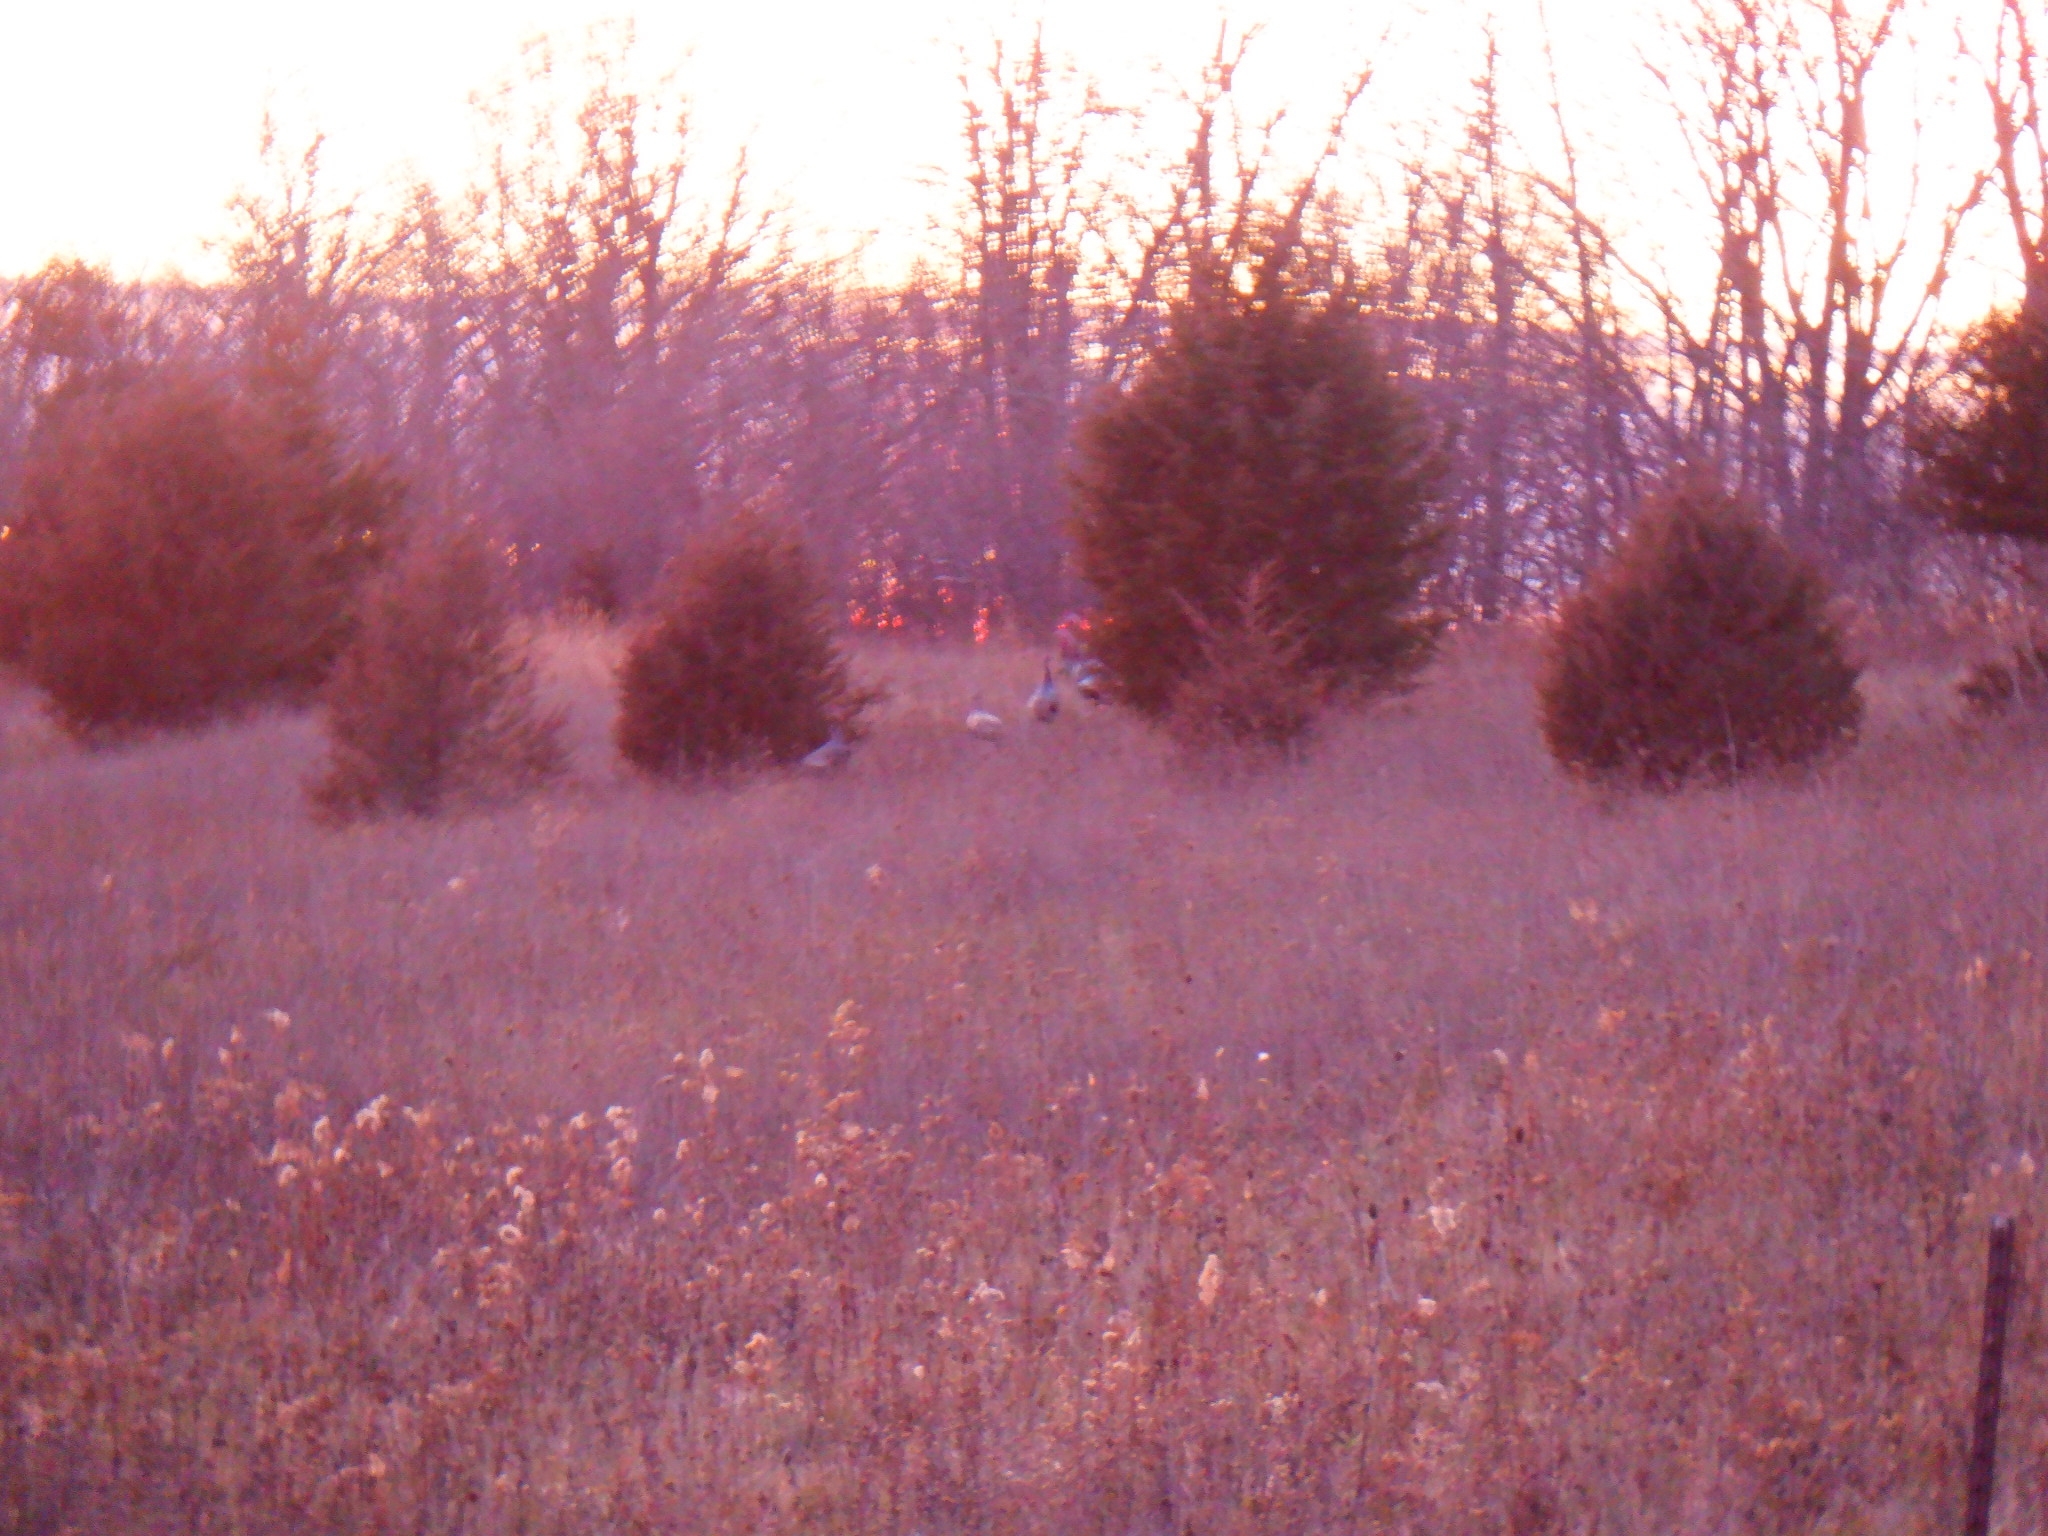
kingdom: Animalia
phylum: Chordata
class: Aves
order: Galliformes
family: Phasianidae
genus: Meleagris
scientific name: Meleagris gallopavo
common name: Wild turkey
